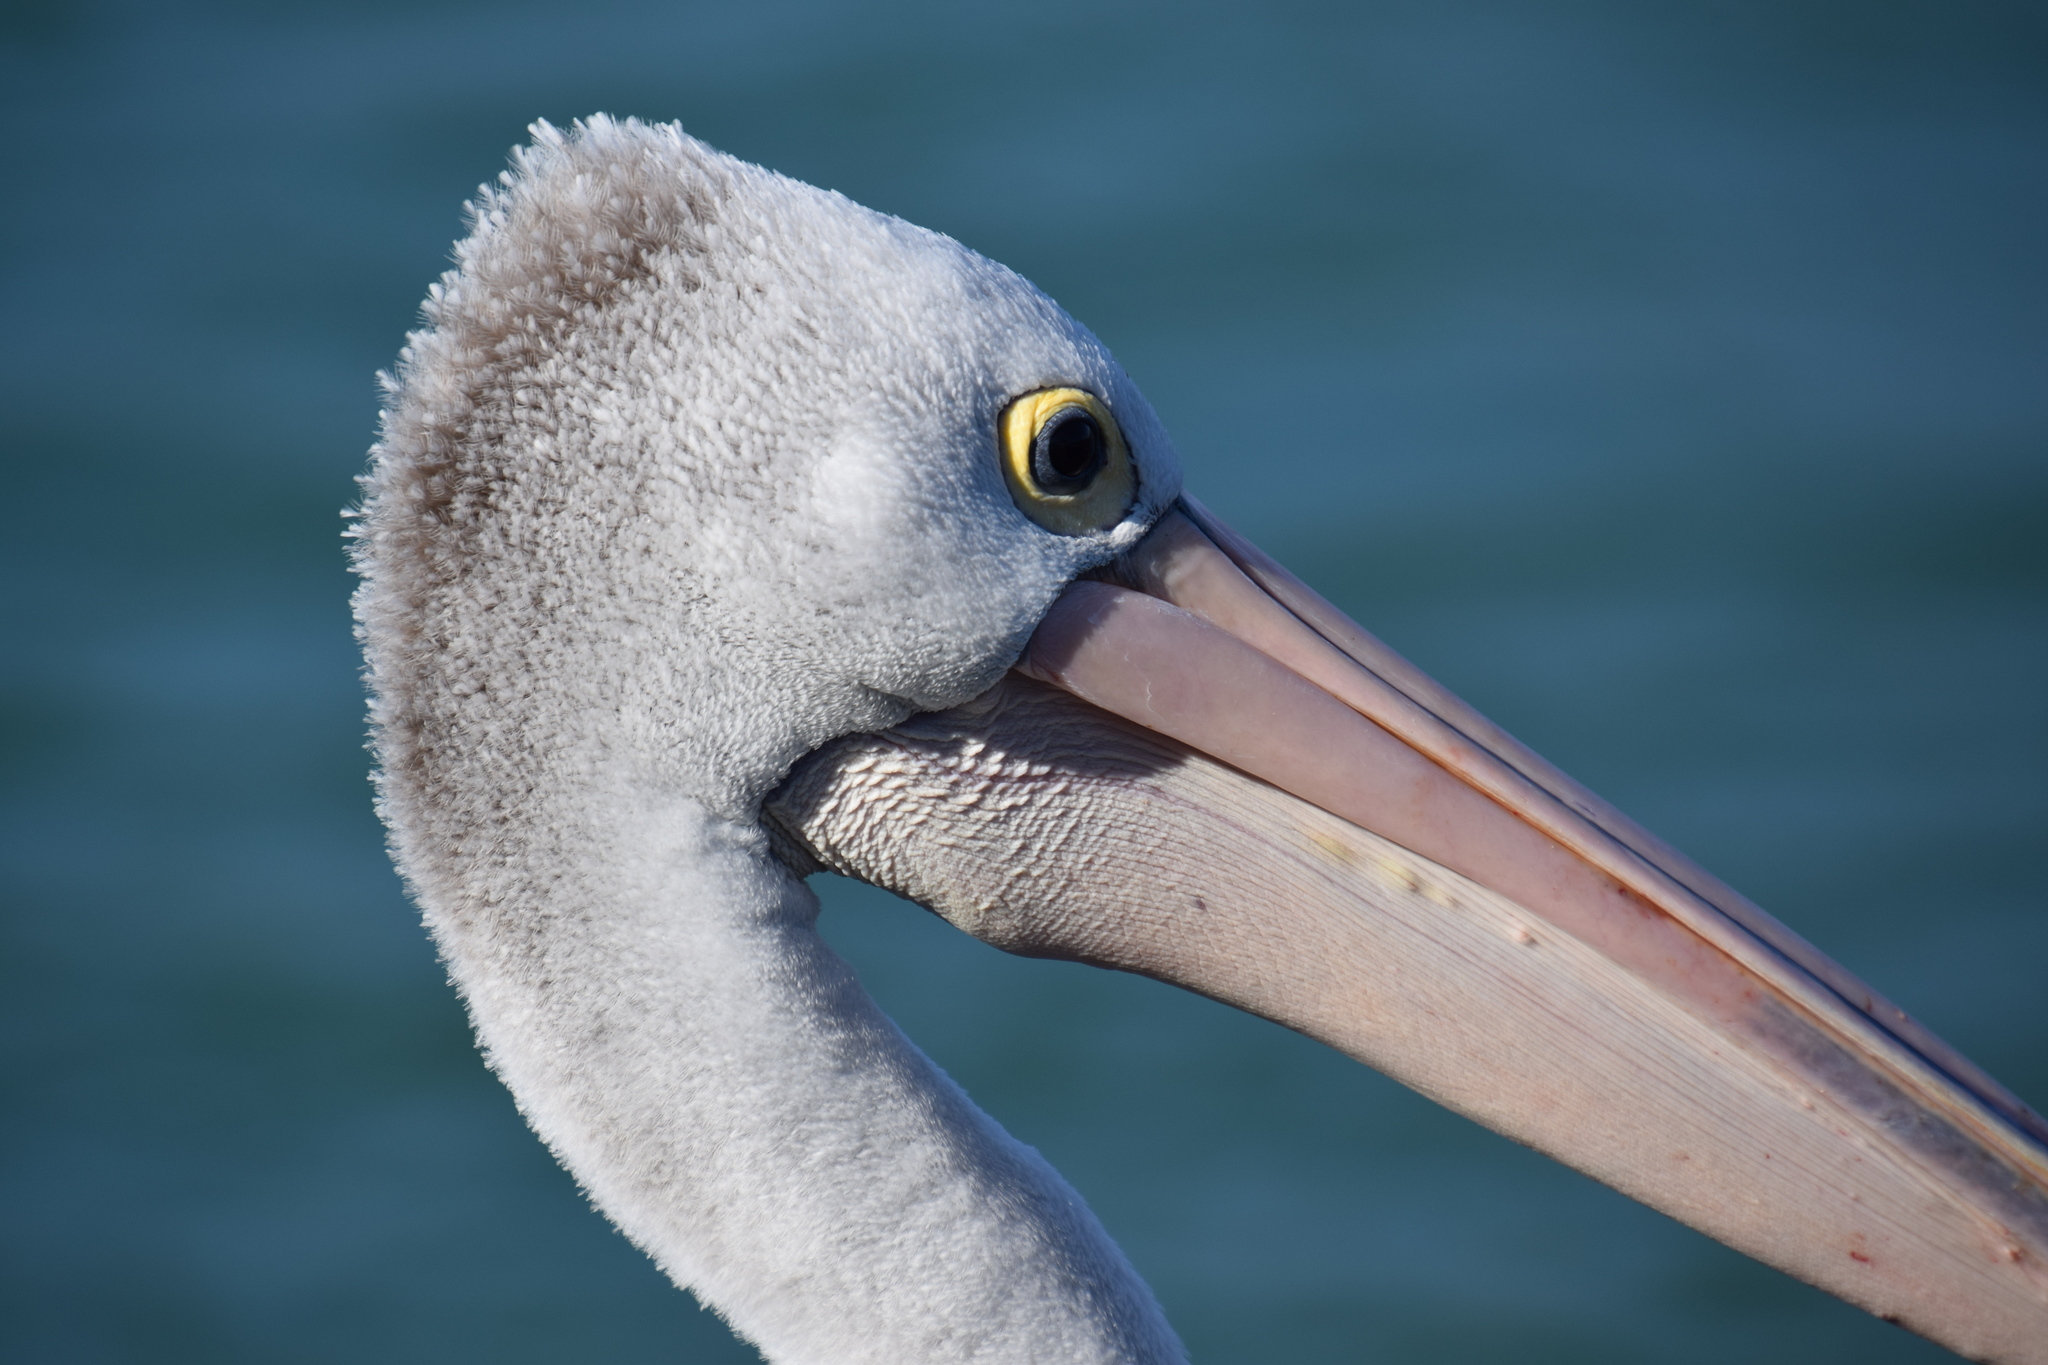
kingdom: Animalia
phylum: Chordata
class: Aves
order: Pelecaniformes
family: Pelecanidae
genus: Pelecanus
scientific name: Pelecanus conspicillatus
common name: Australian pelican
